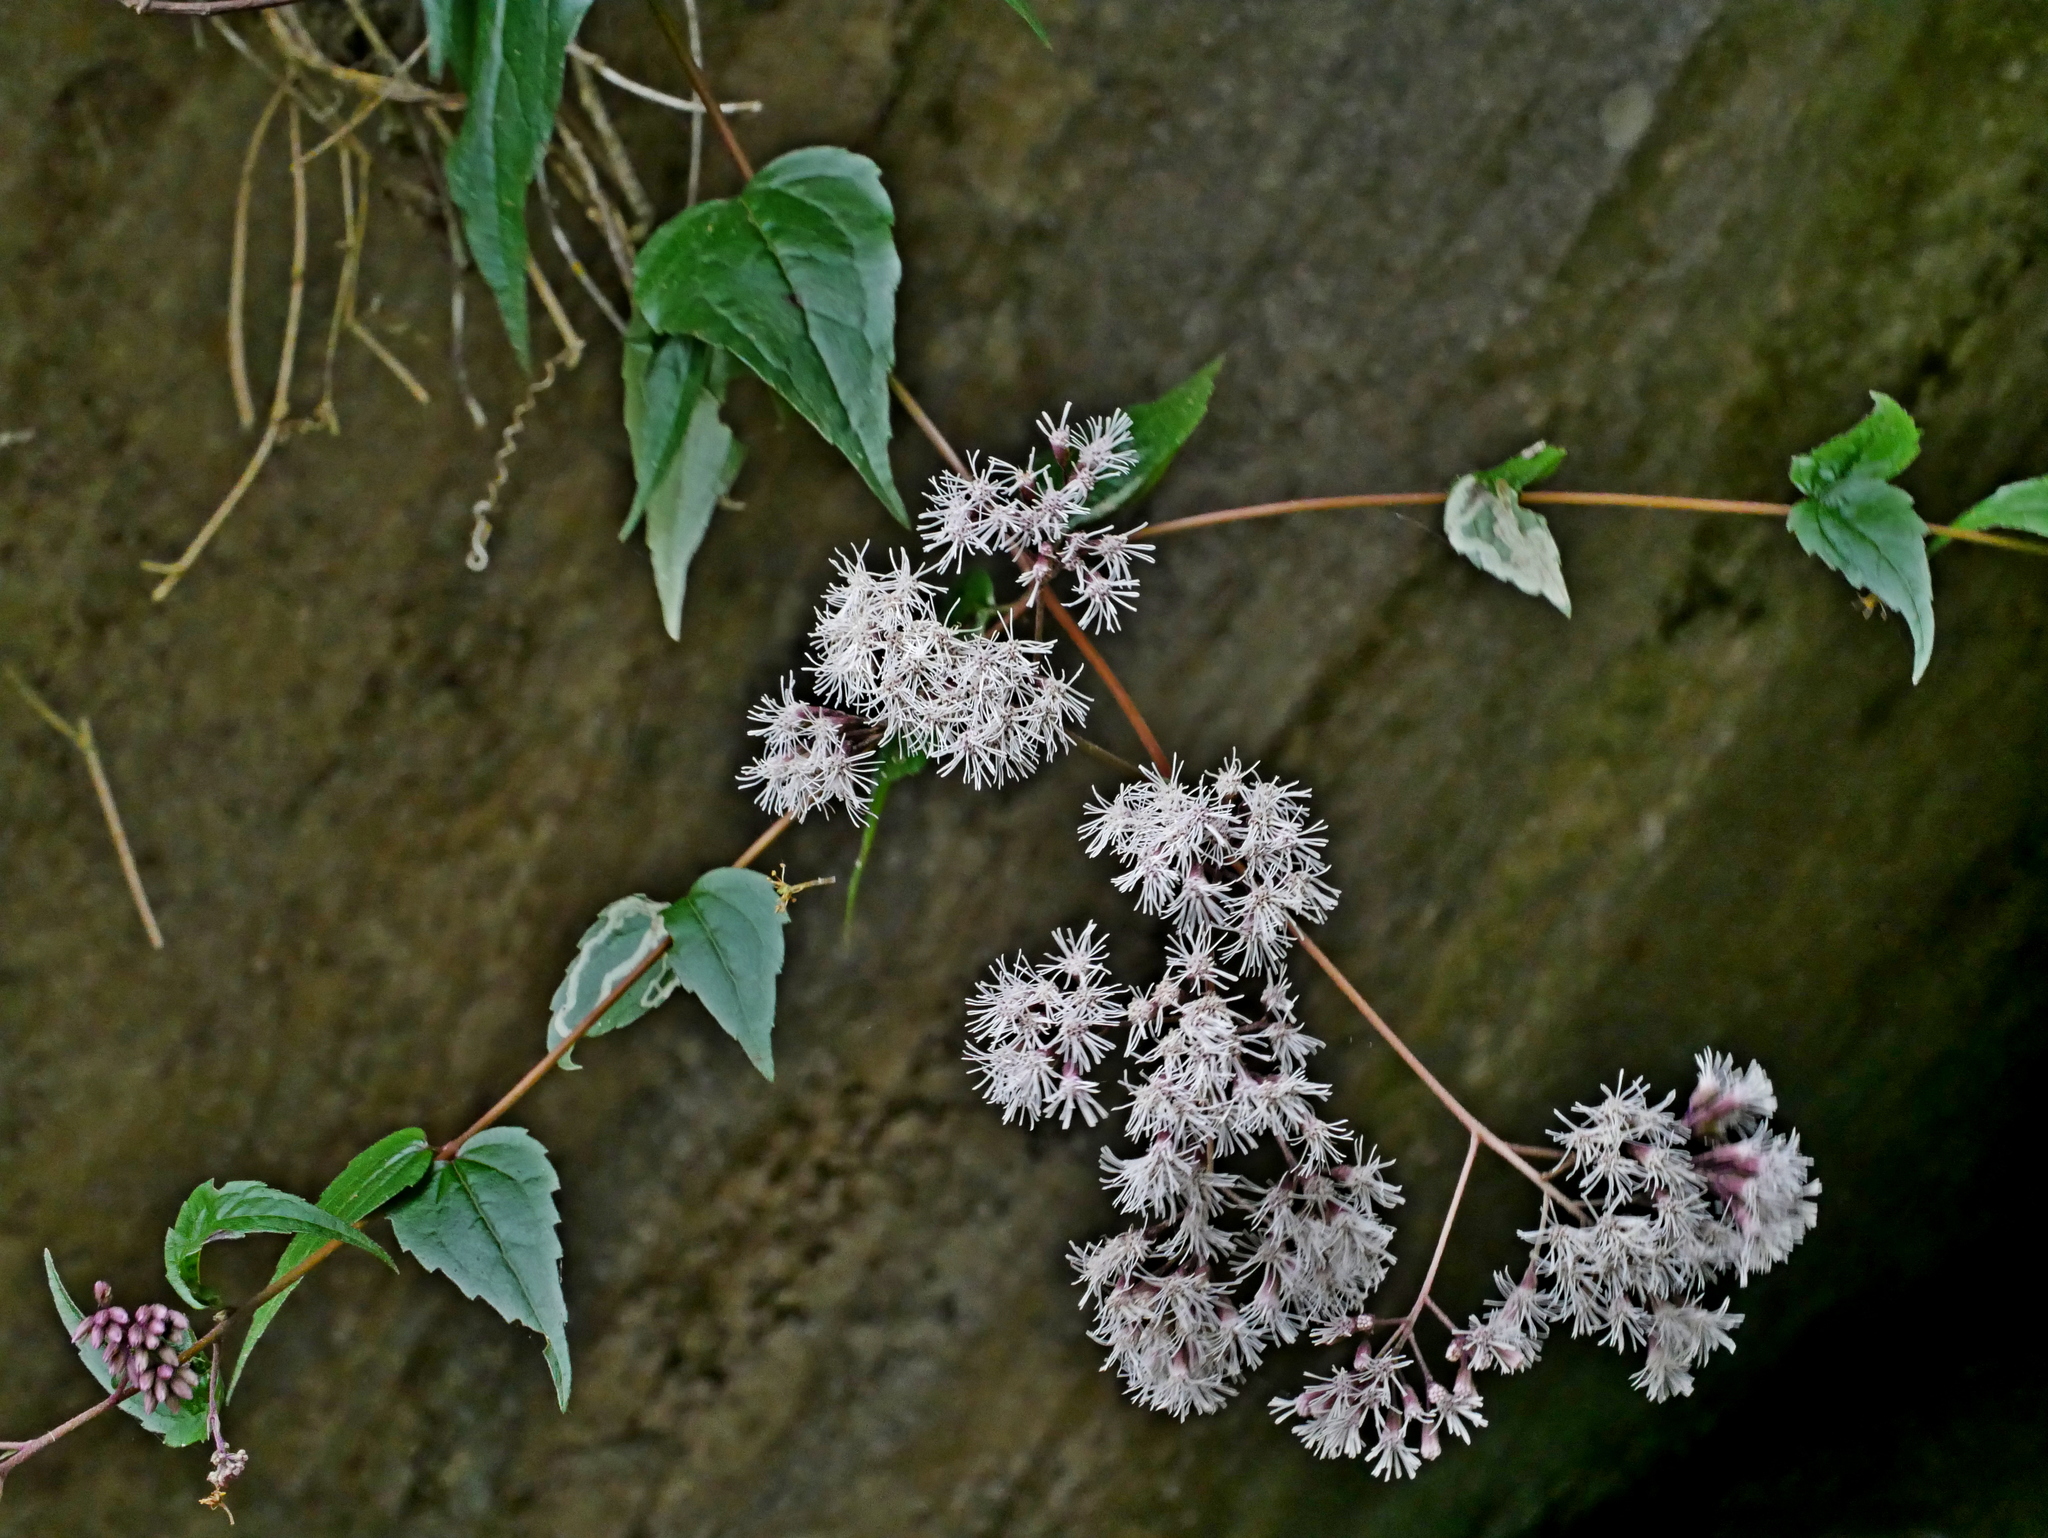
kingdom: Plantae
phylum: Tracheophyta
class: Magnoliopsida
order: Asterales
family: Asteraceae
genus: Eupatorium
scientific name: Eupatorium amabile
